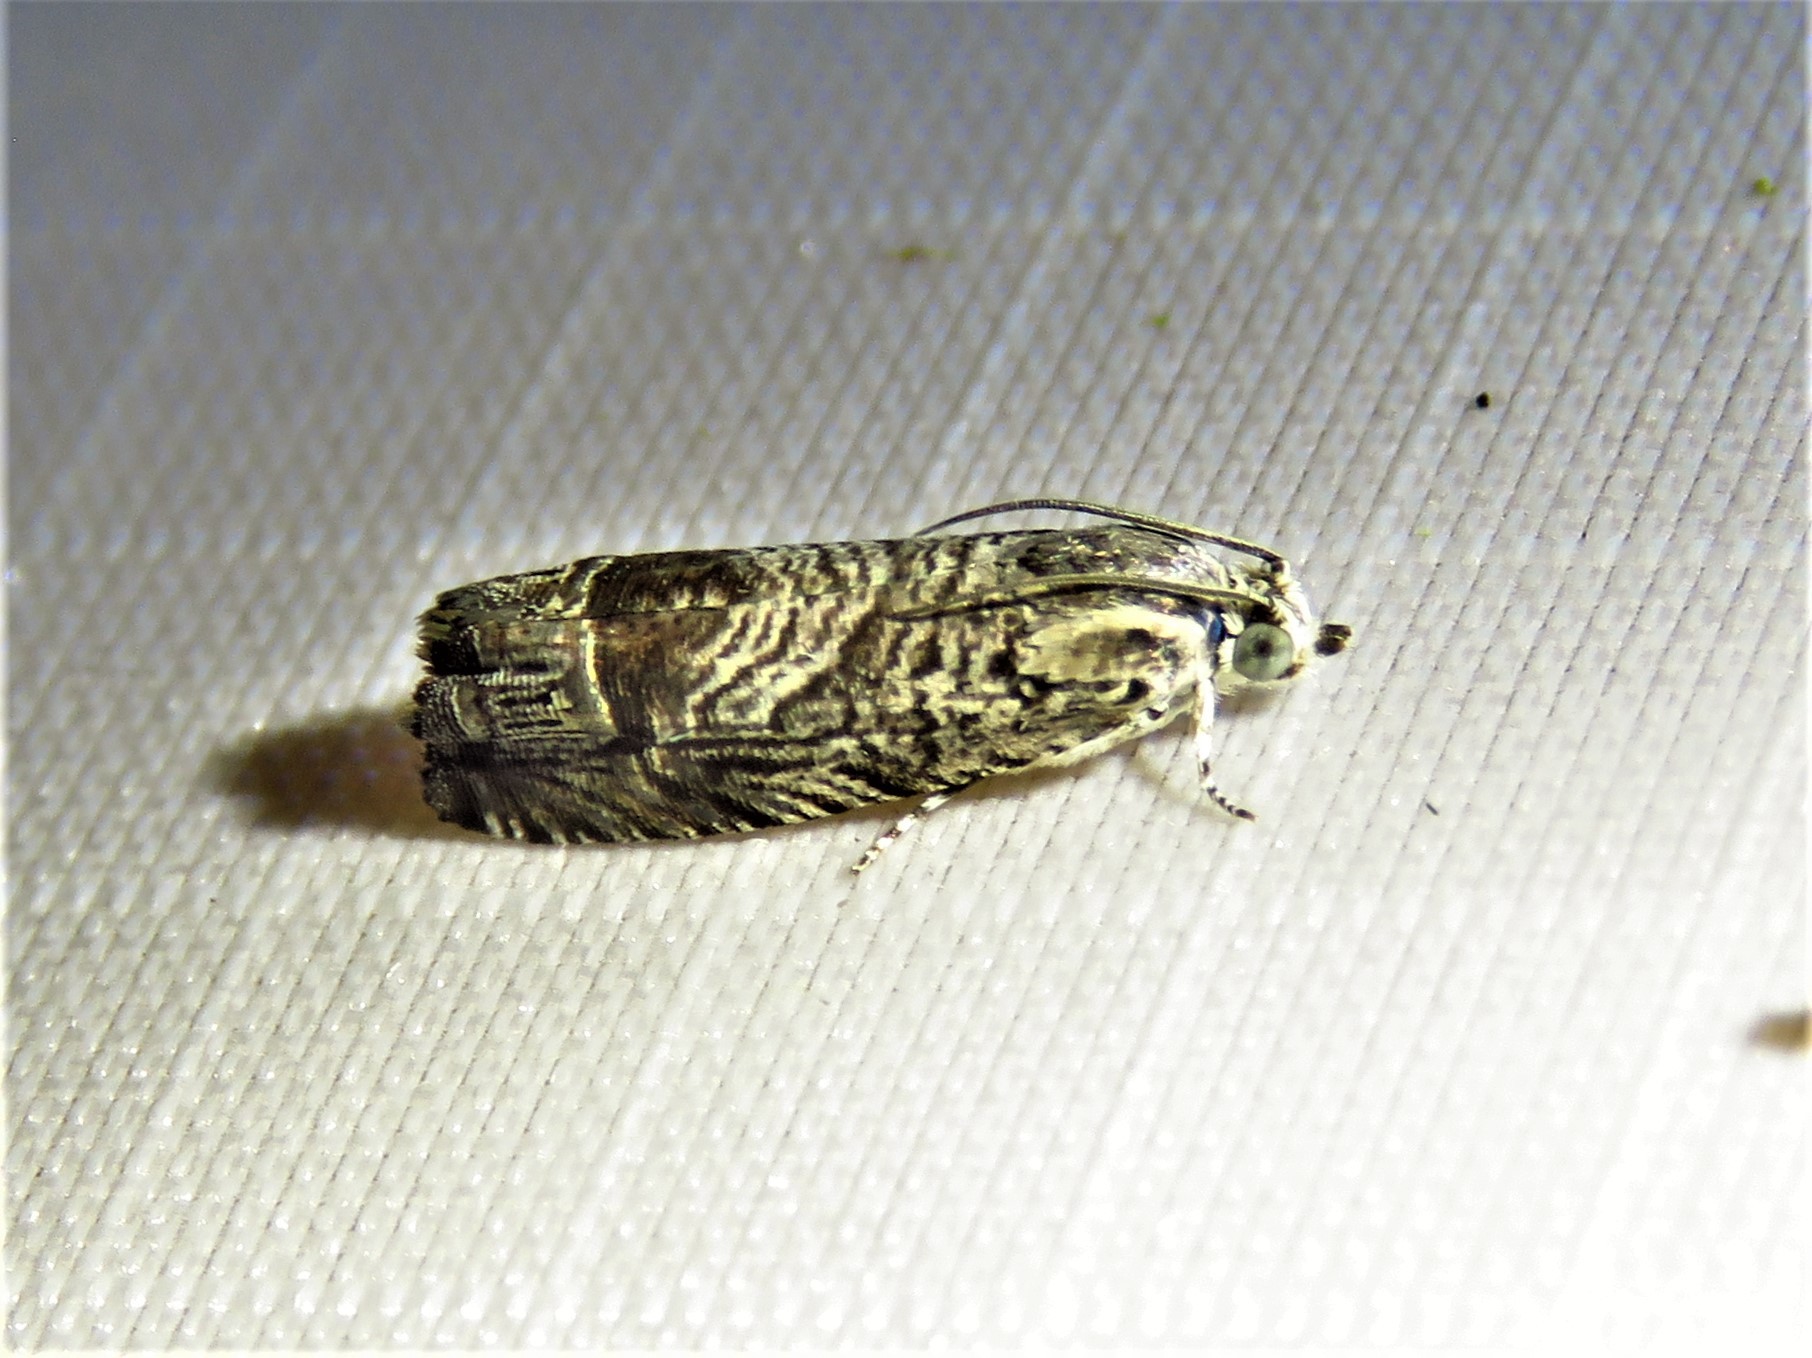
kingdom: Animalia
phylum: Arthropoda
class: Insecta
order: Lepidoptera
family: Tortricidae
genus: Ofatulena
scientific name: Ofatulena duodecemstriata
